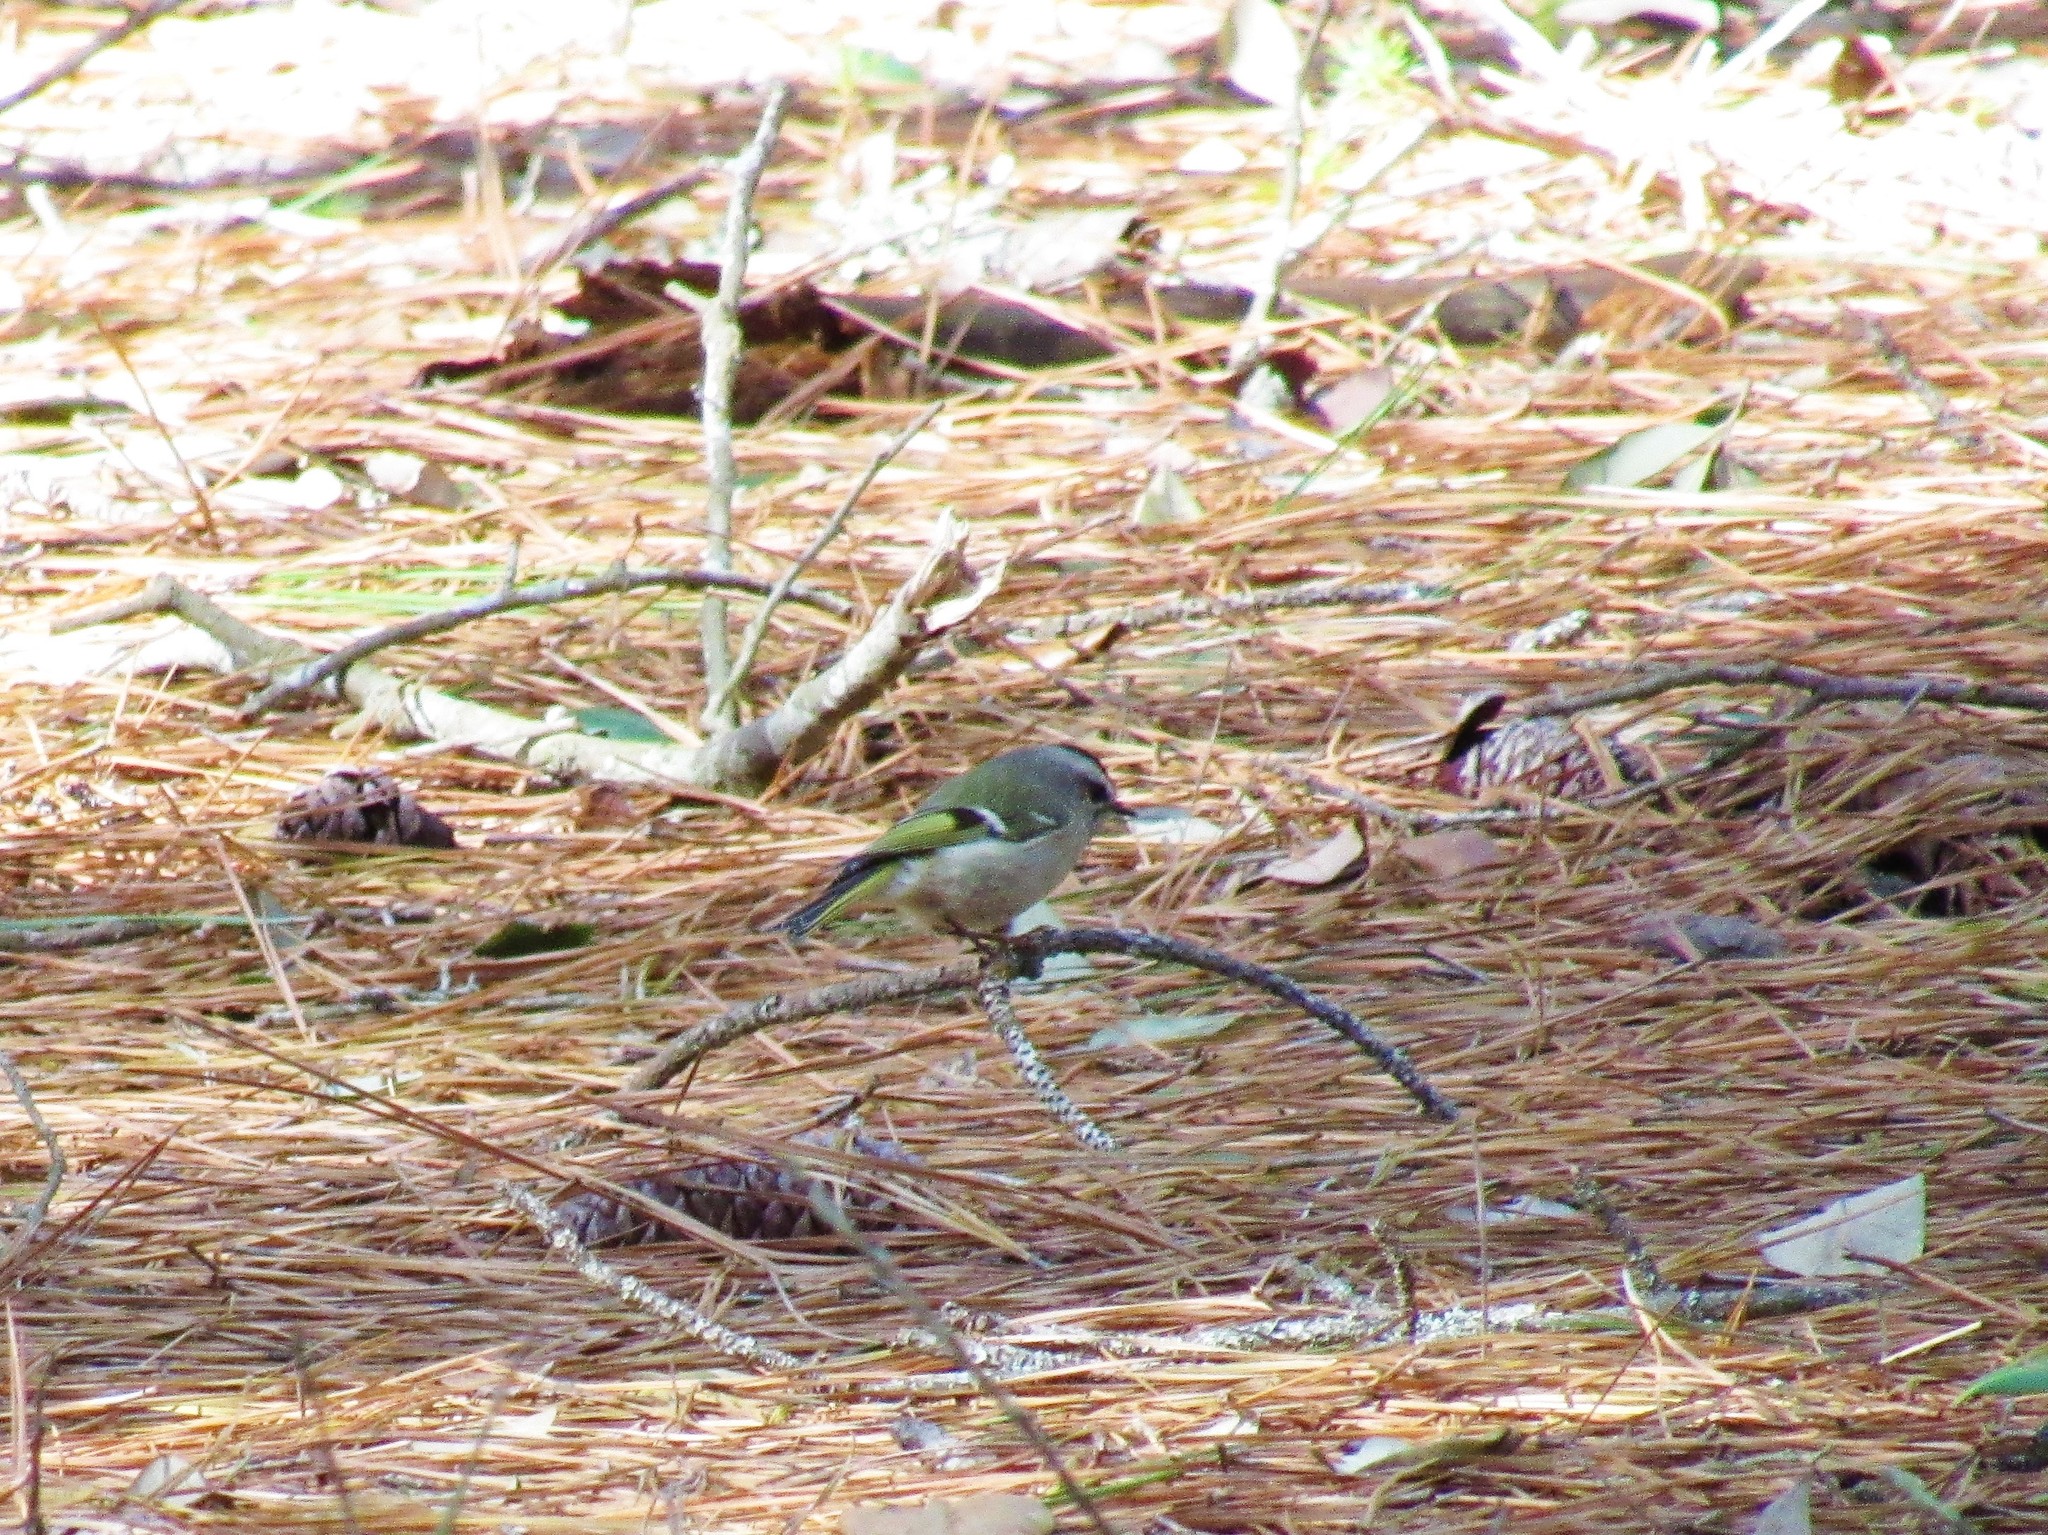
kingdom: Animalia
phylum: Chordata
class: Aves
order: Passeriformes
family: Regulidae
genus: Regulus
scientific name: Regulus satrapa
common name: Golden-crowned kinglet
